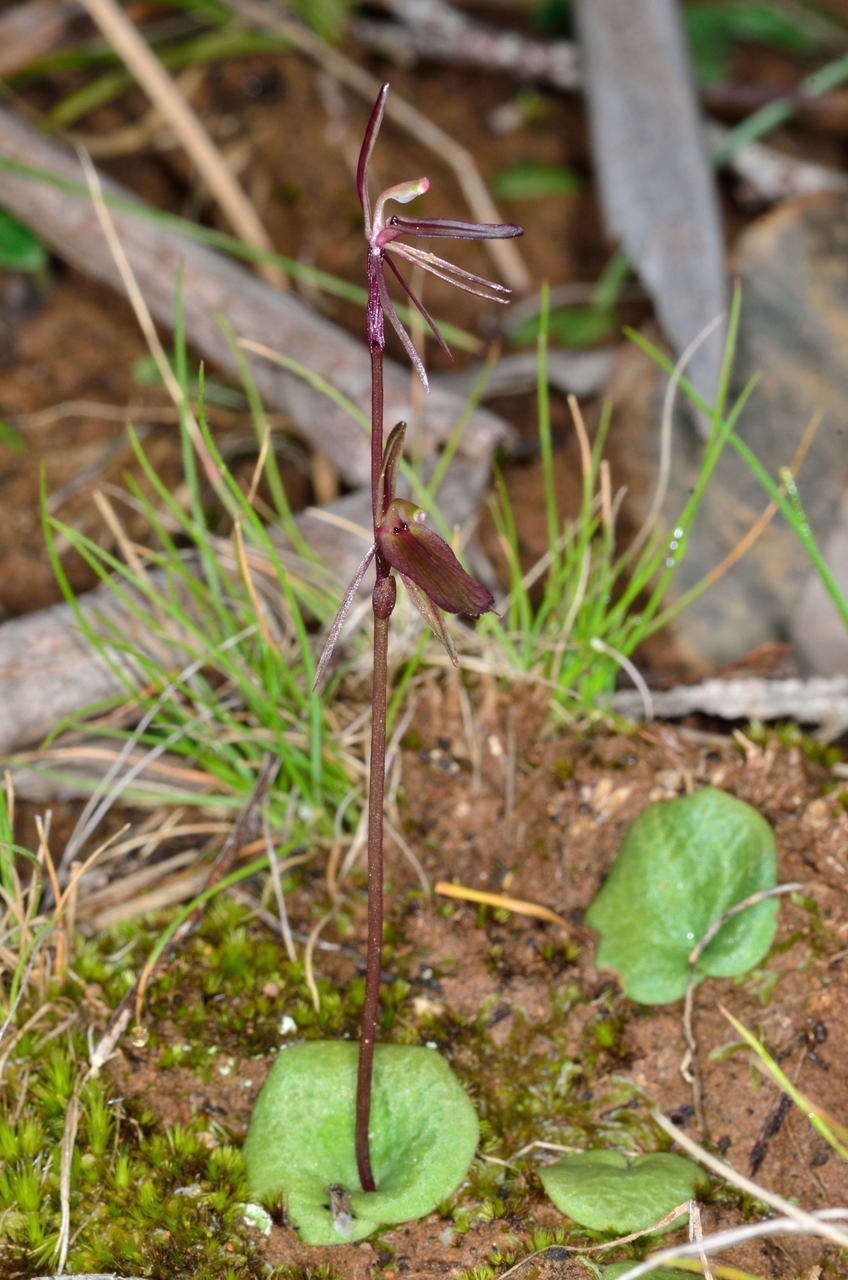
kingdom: Plantae
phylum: Tracheophyta
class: Liliopsida
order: Asparagales
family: Orchidaceae
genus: Cyrtostylis
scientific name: Cyrtostylis reniformis
